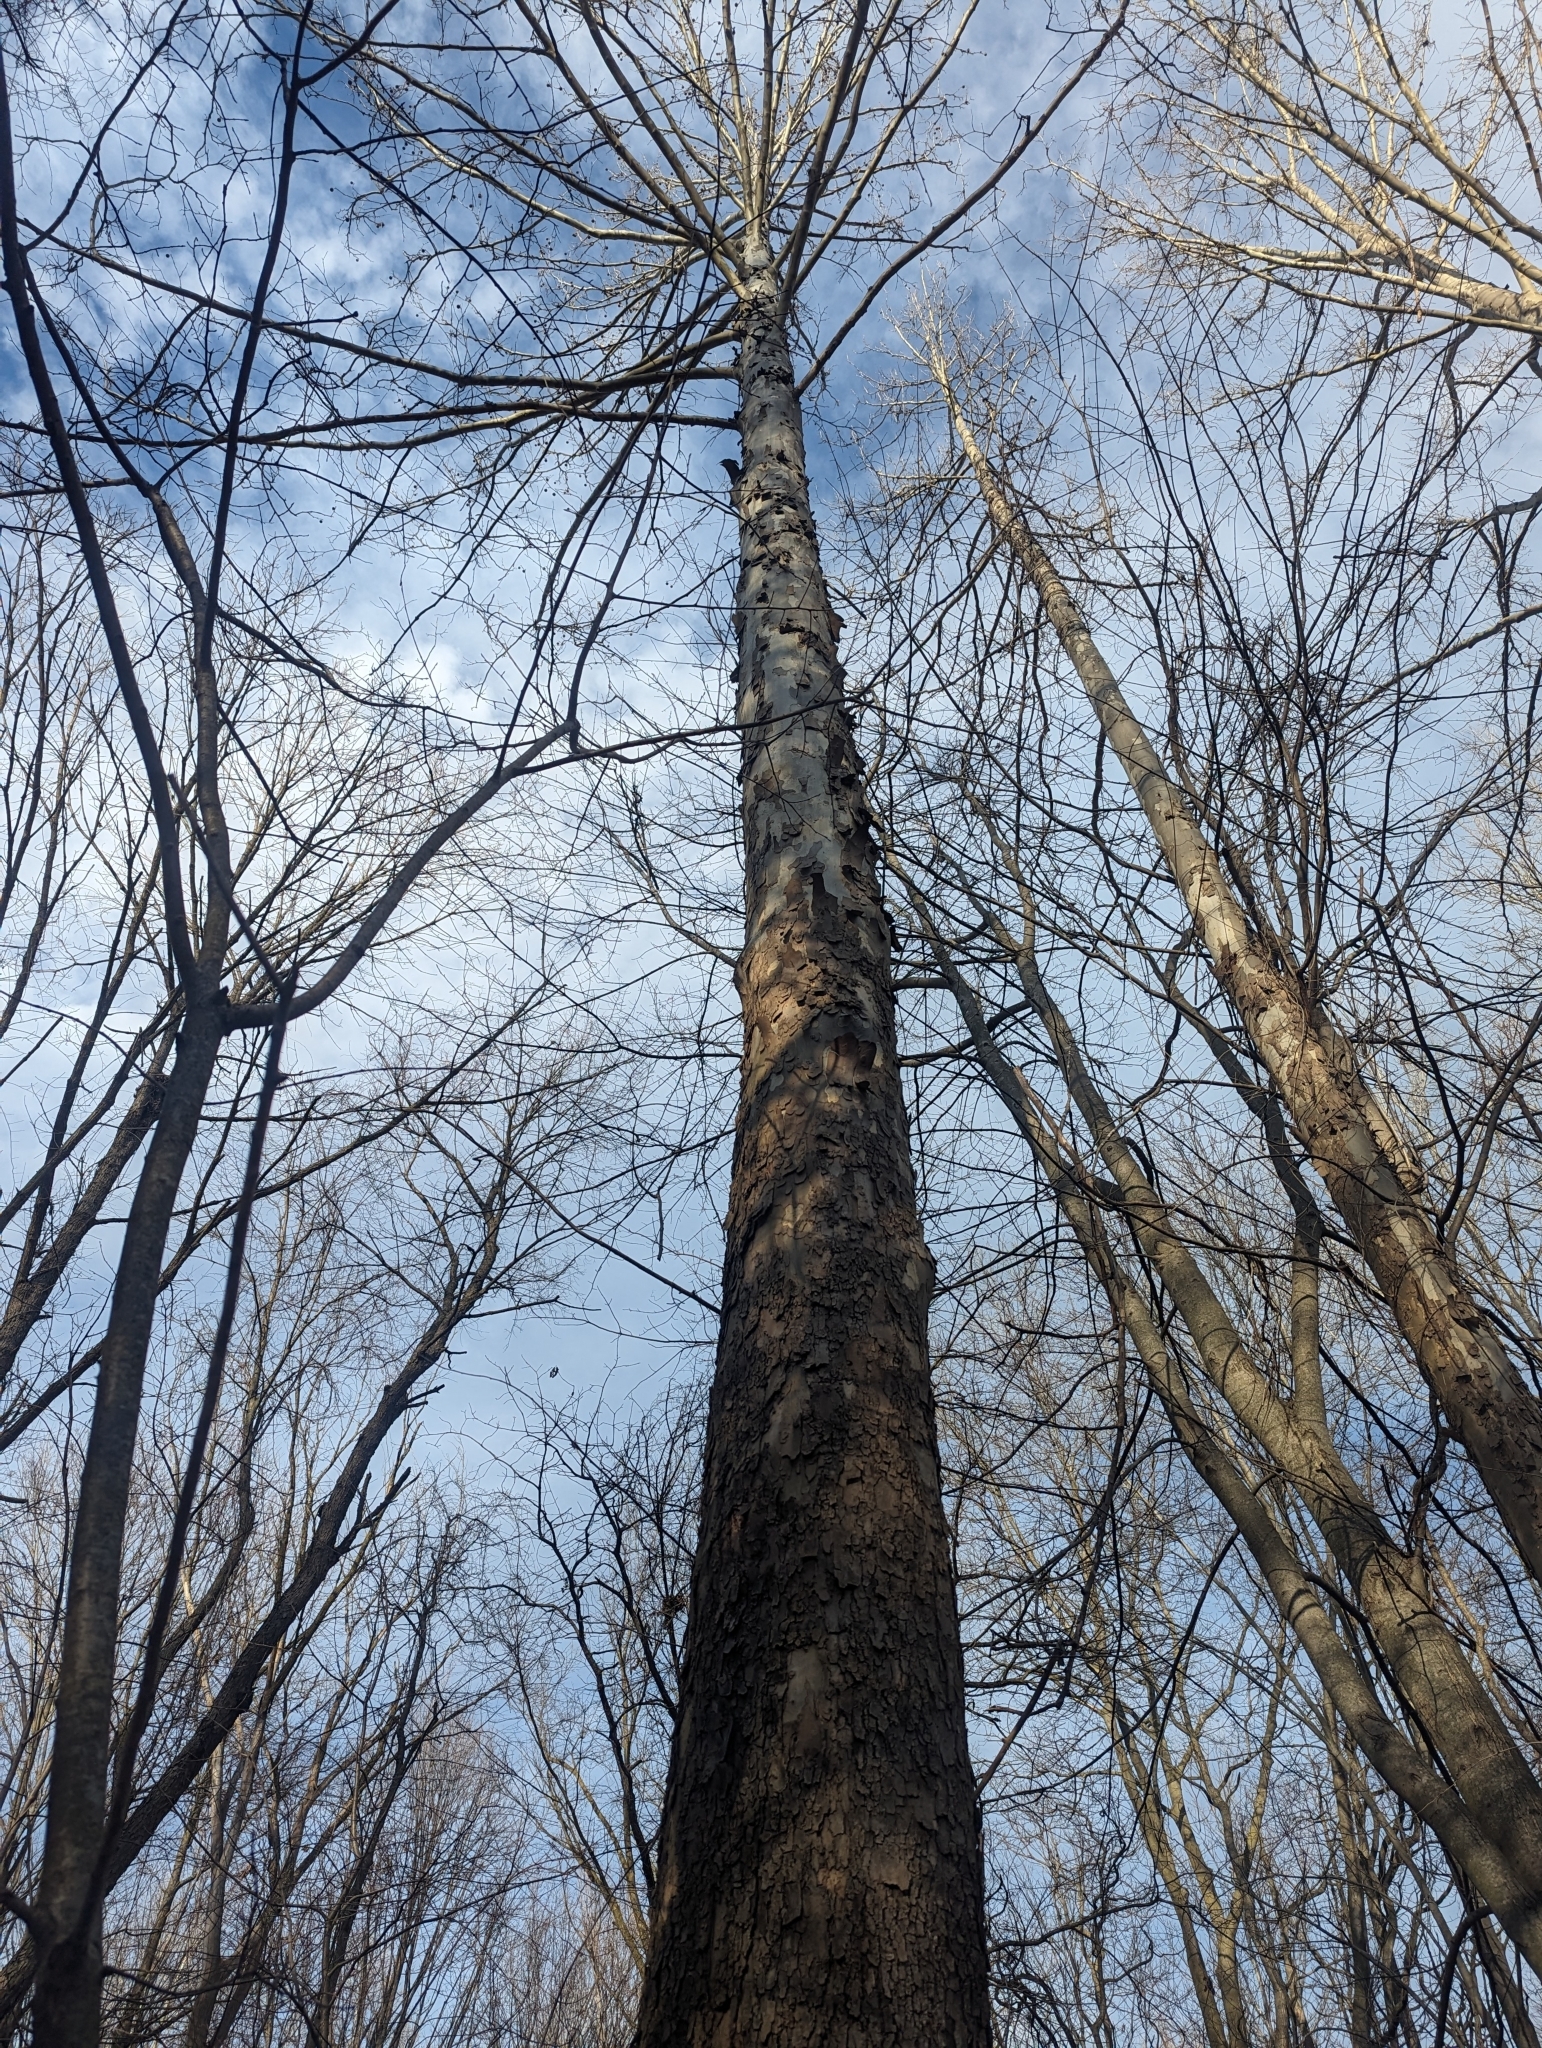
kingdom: Plantae
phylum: Tracheophyta
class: Magnoliopsida
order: Proteales
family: Platanaceae
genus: Platanus
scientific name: Platanus occidentalis
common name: American sycamore
